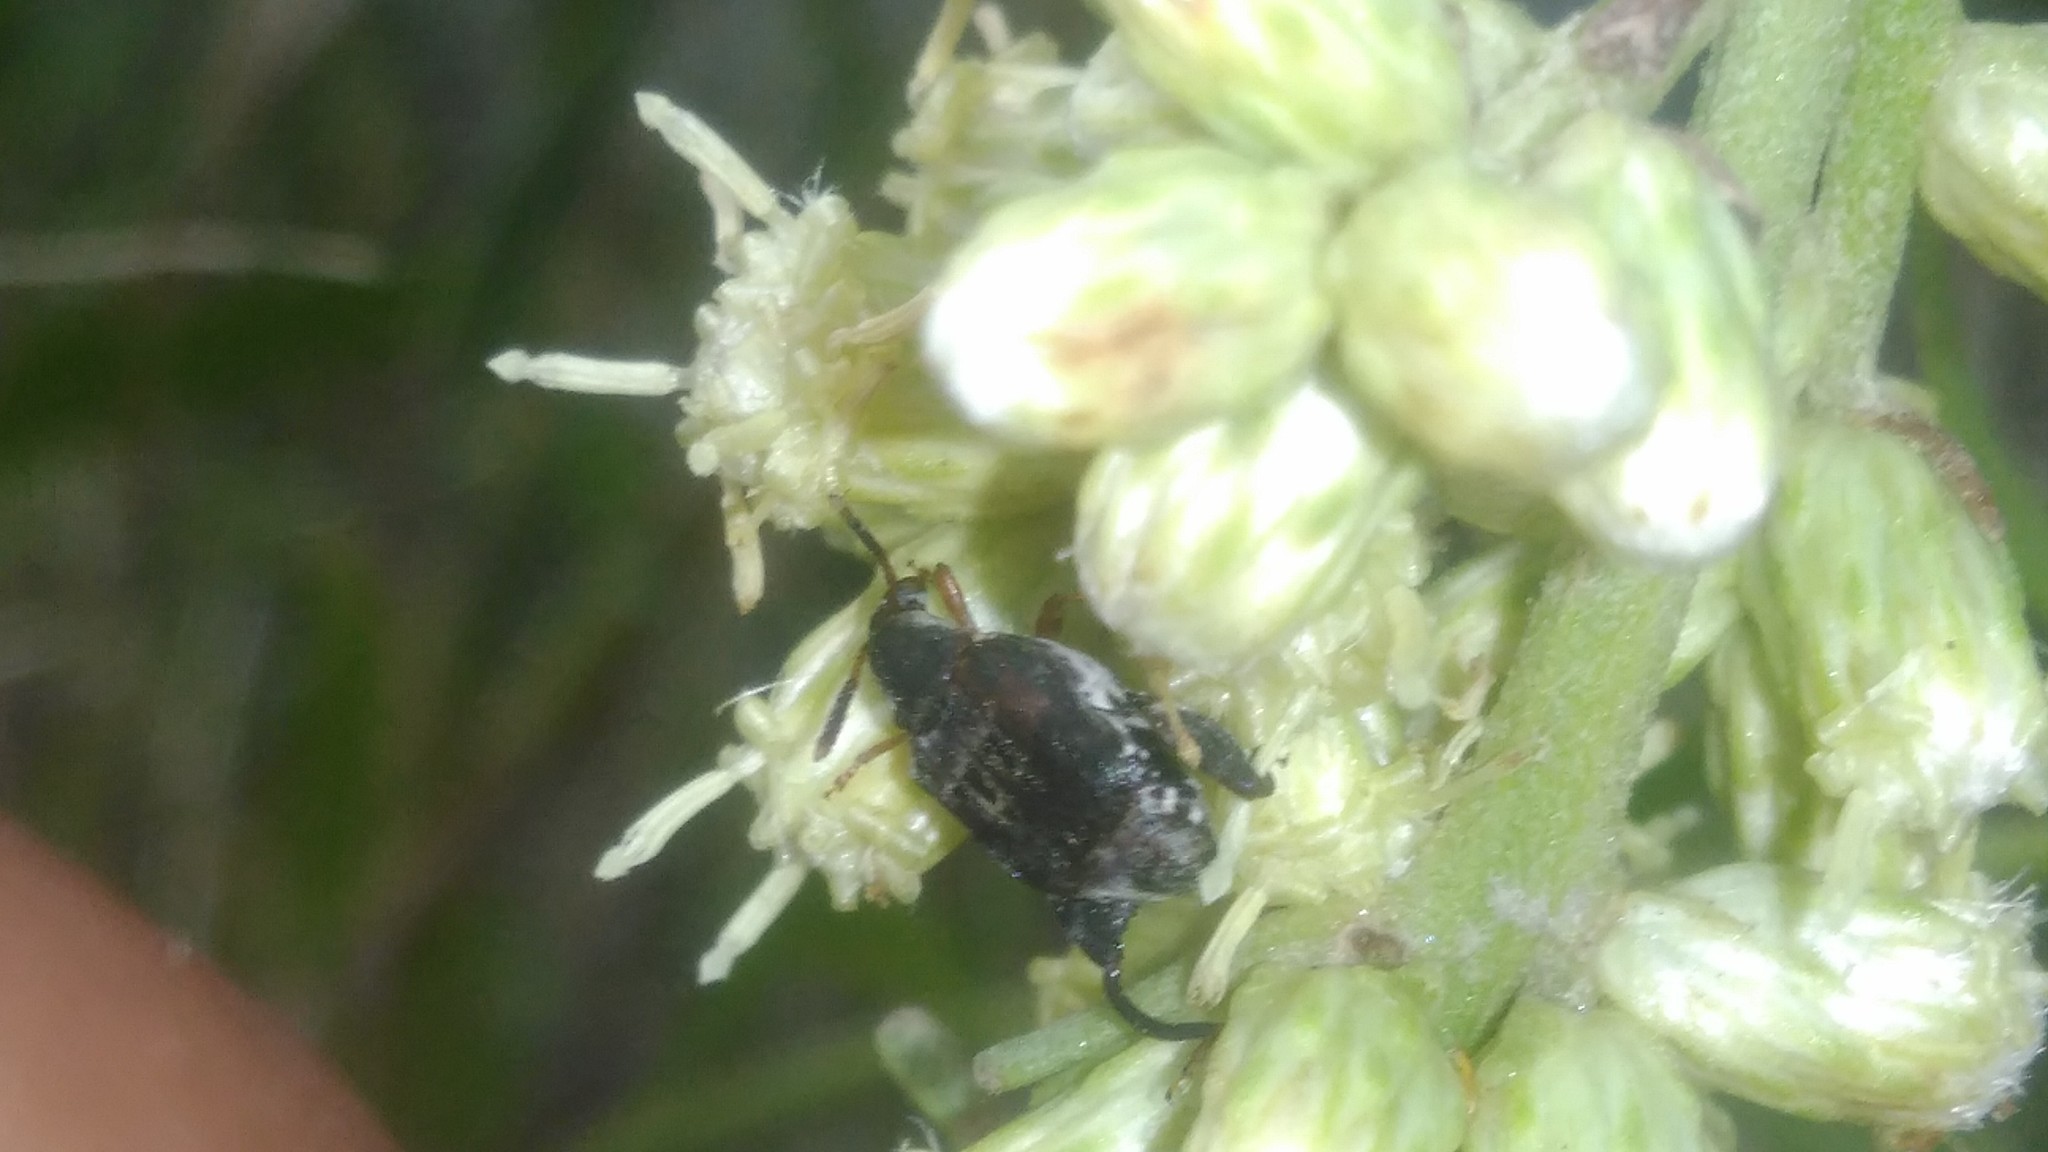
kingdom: Animalia
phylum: Arthropoda
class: Insecta
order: Coleoptera
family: Chrysomelidae
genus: Penthobruchus
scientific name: Penthobruchus
